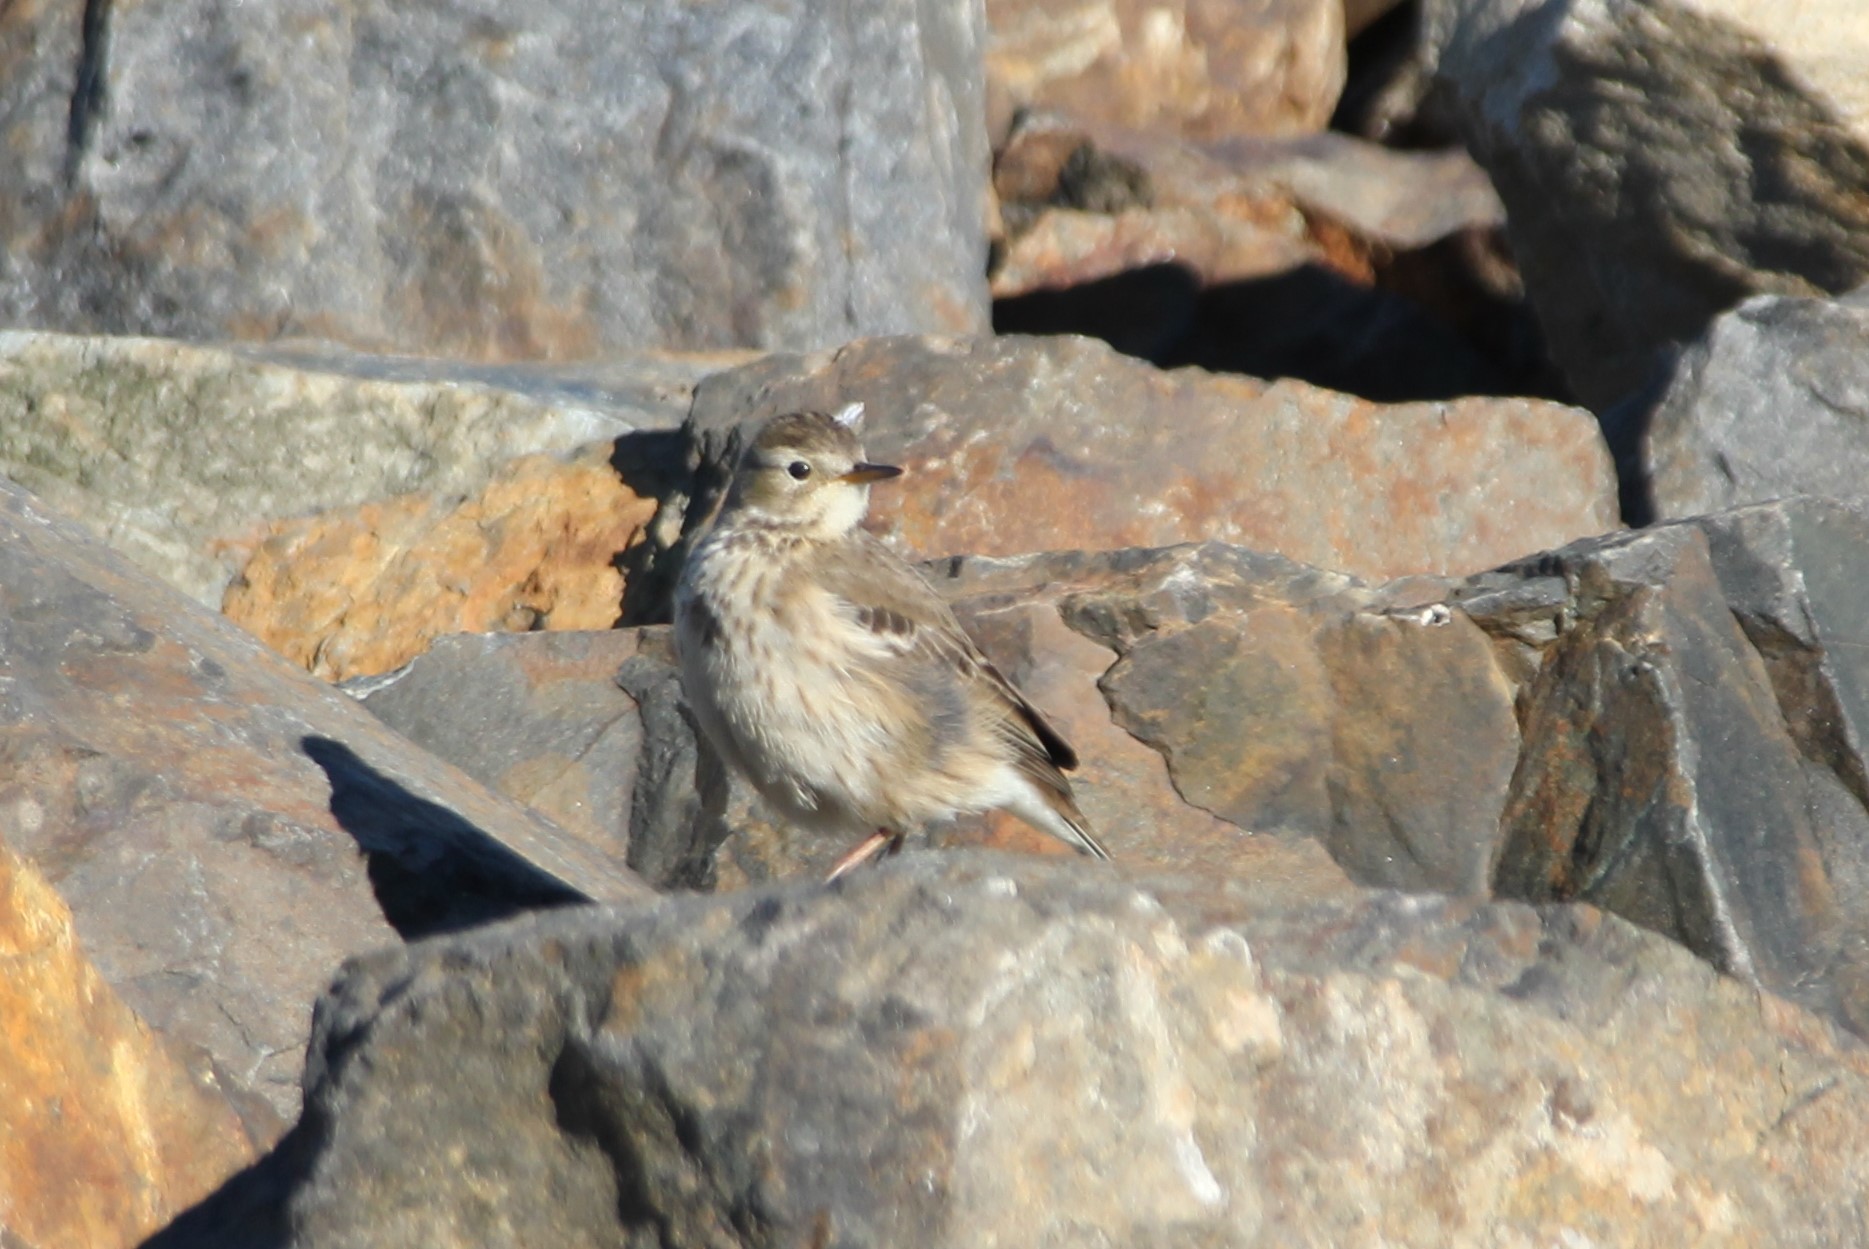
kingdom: Animalia
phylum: Chordata
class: Aves
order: Passeriformes
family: Motacillidae
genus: Anthus
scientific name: Anthus rubescens
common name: Buff-bellied pipit
